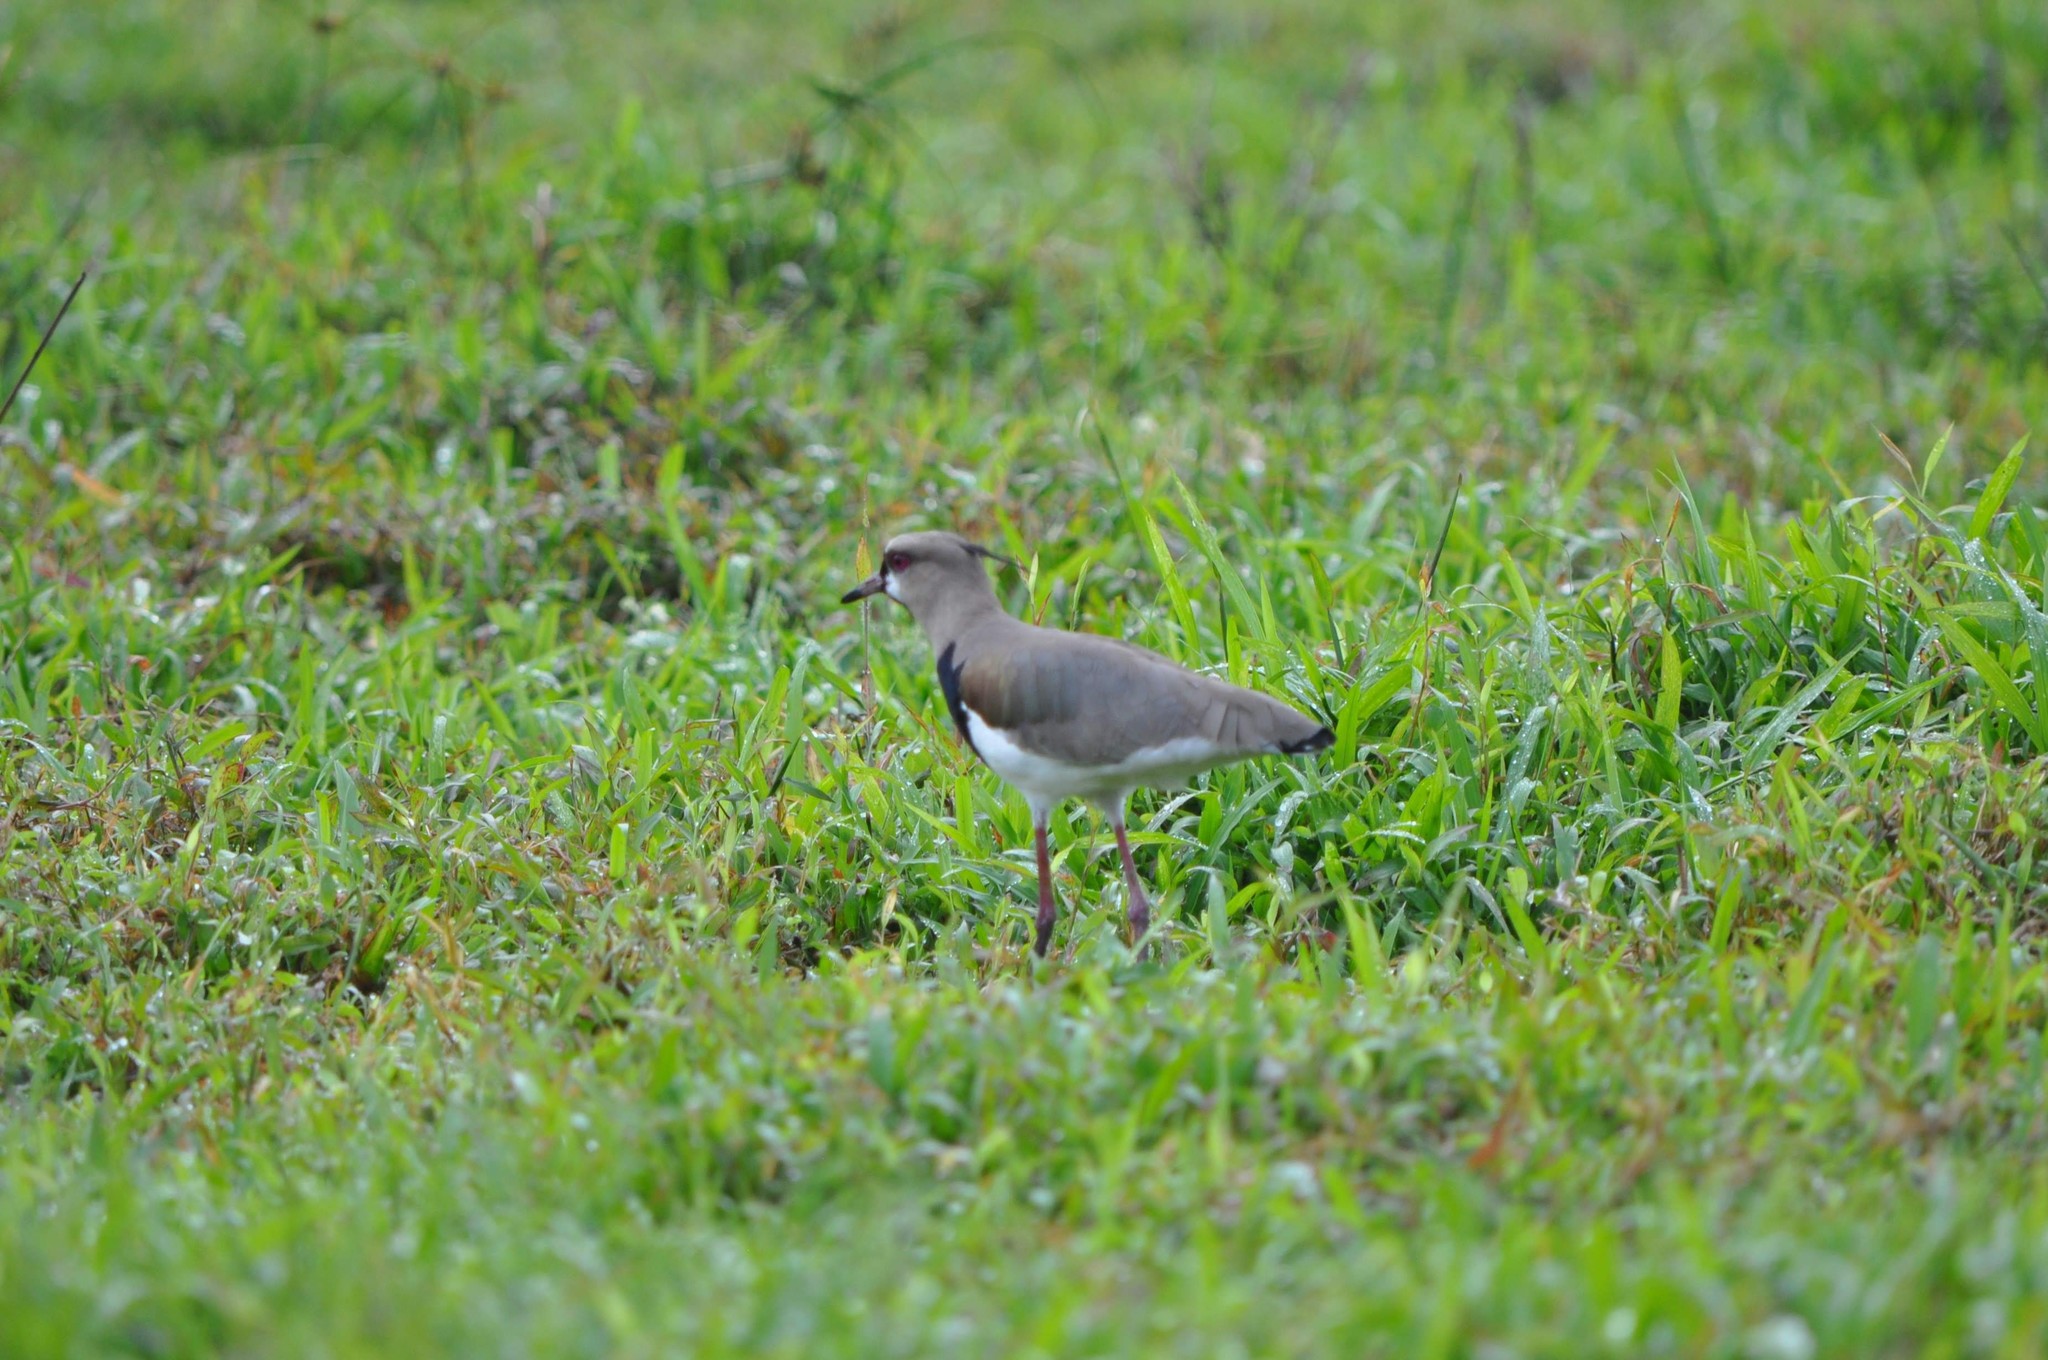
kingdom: Animalia
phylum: Chordata
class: Aves
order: Charadriiformes
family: Charadriidae
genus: Vanellus
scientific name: Vanellus chilensis
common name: Southern lapwing
